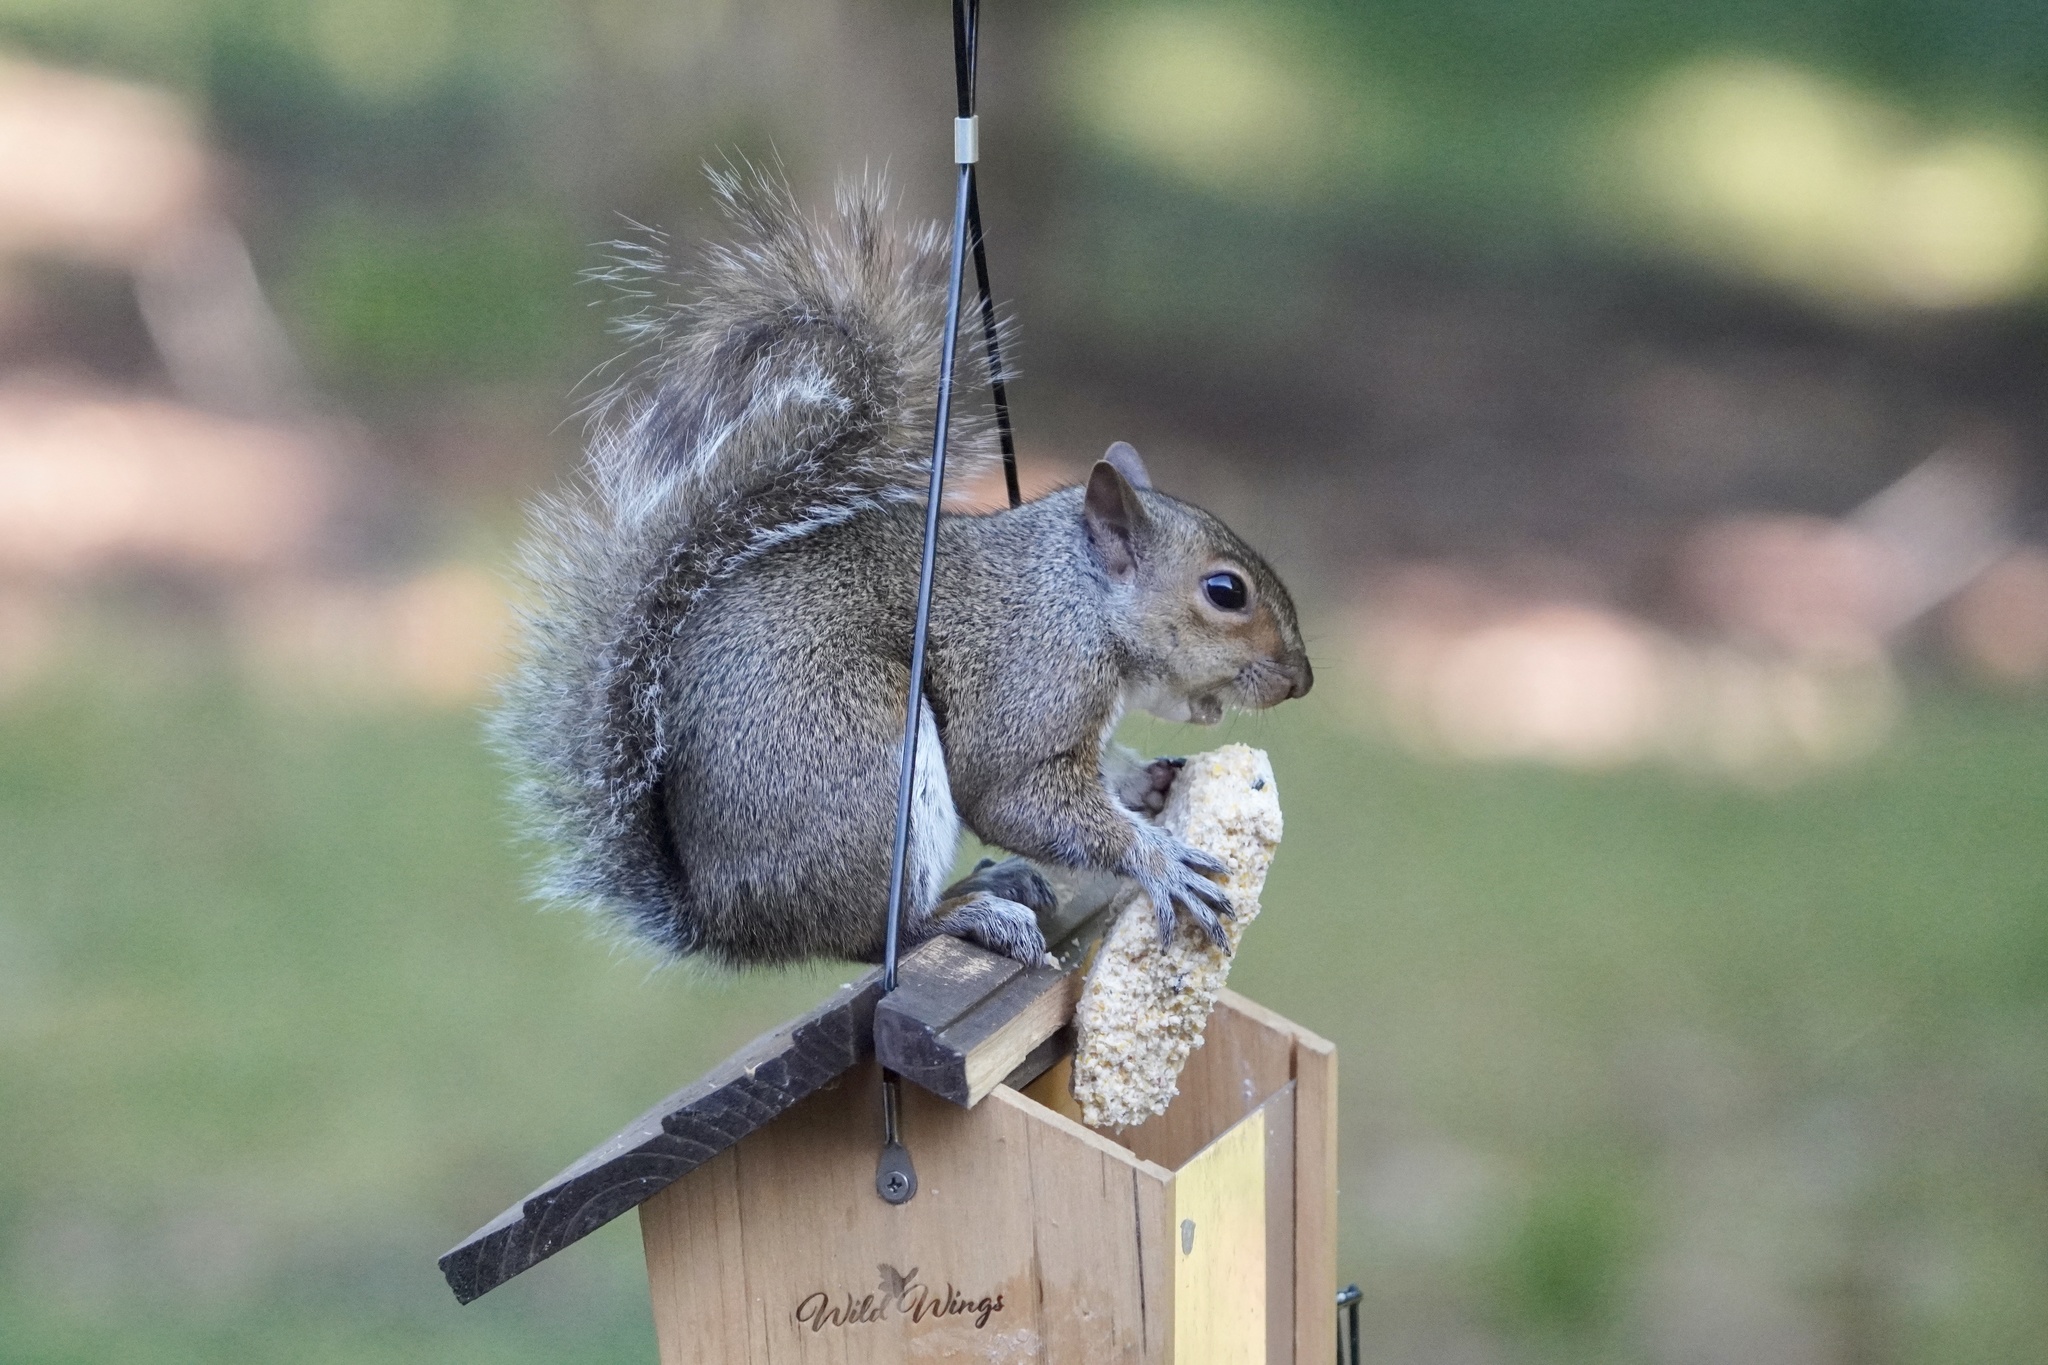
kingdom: Animalia
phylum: Chordata
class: Mammalia
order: Rodentia
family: Sciuridae
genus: Sciurus
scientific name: Sciurus carolinensis
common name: Eastern gray squirrel
